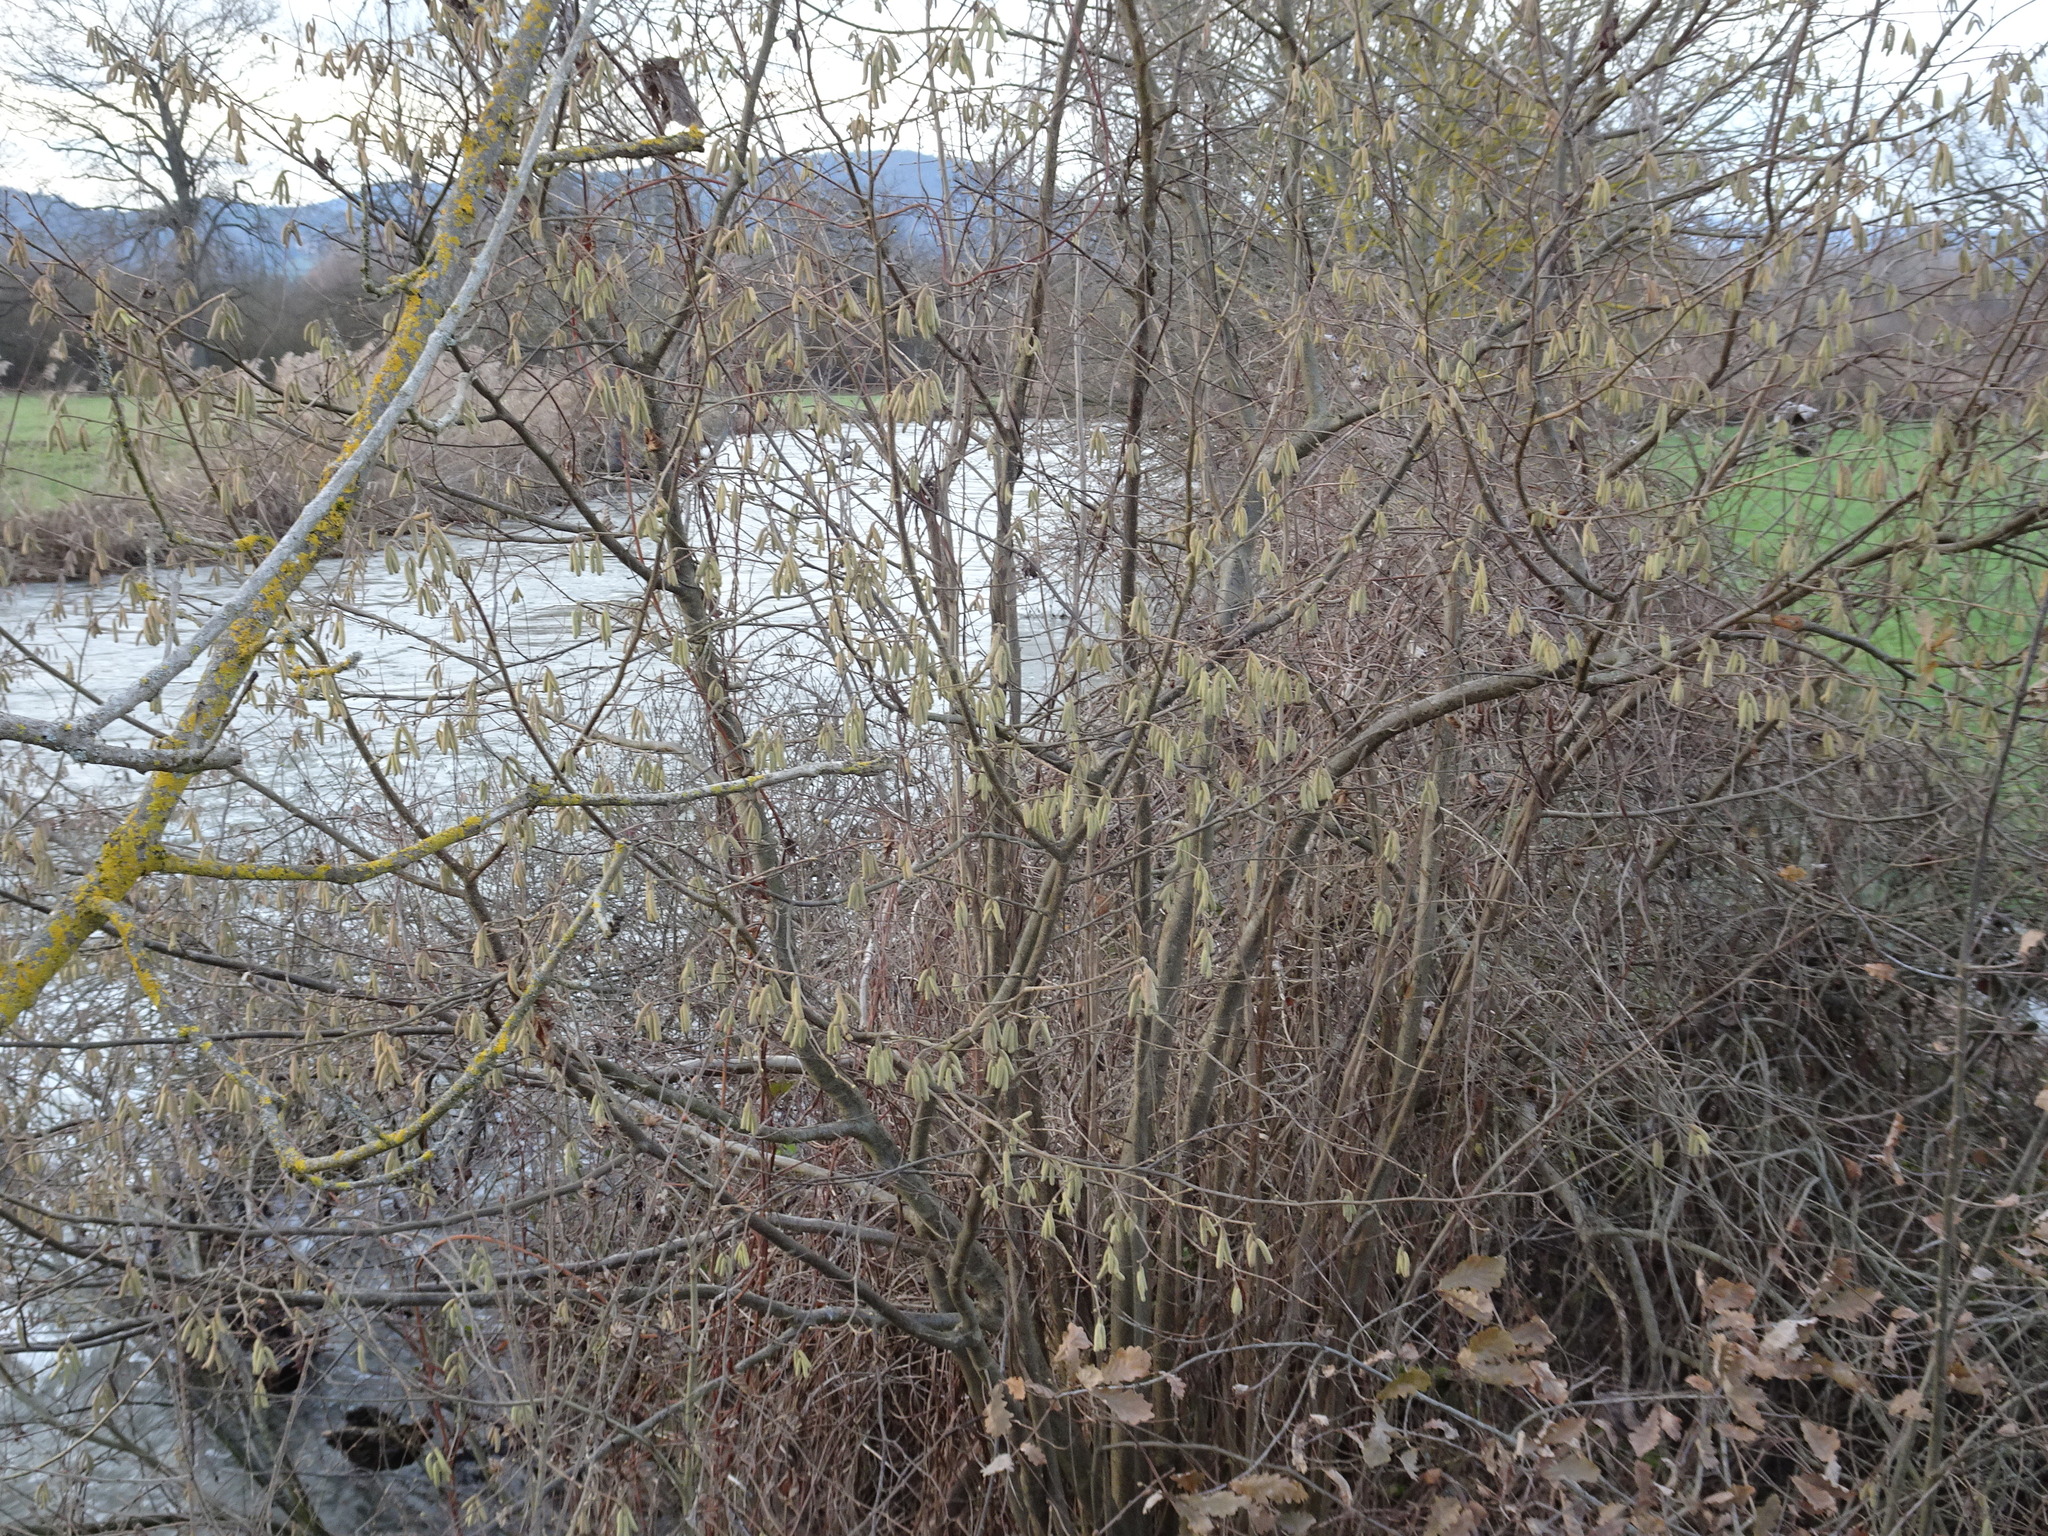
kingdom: Plantae
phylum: Tracheophyta
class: Magnoliopsida
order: Fagales
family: Betulaceae
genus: Corylus
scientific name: Corylus avellana
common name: European hazel
